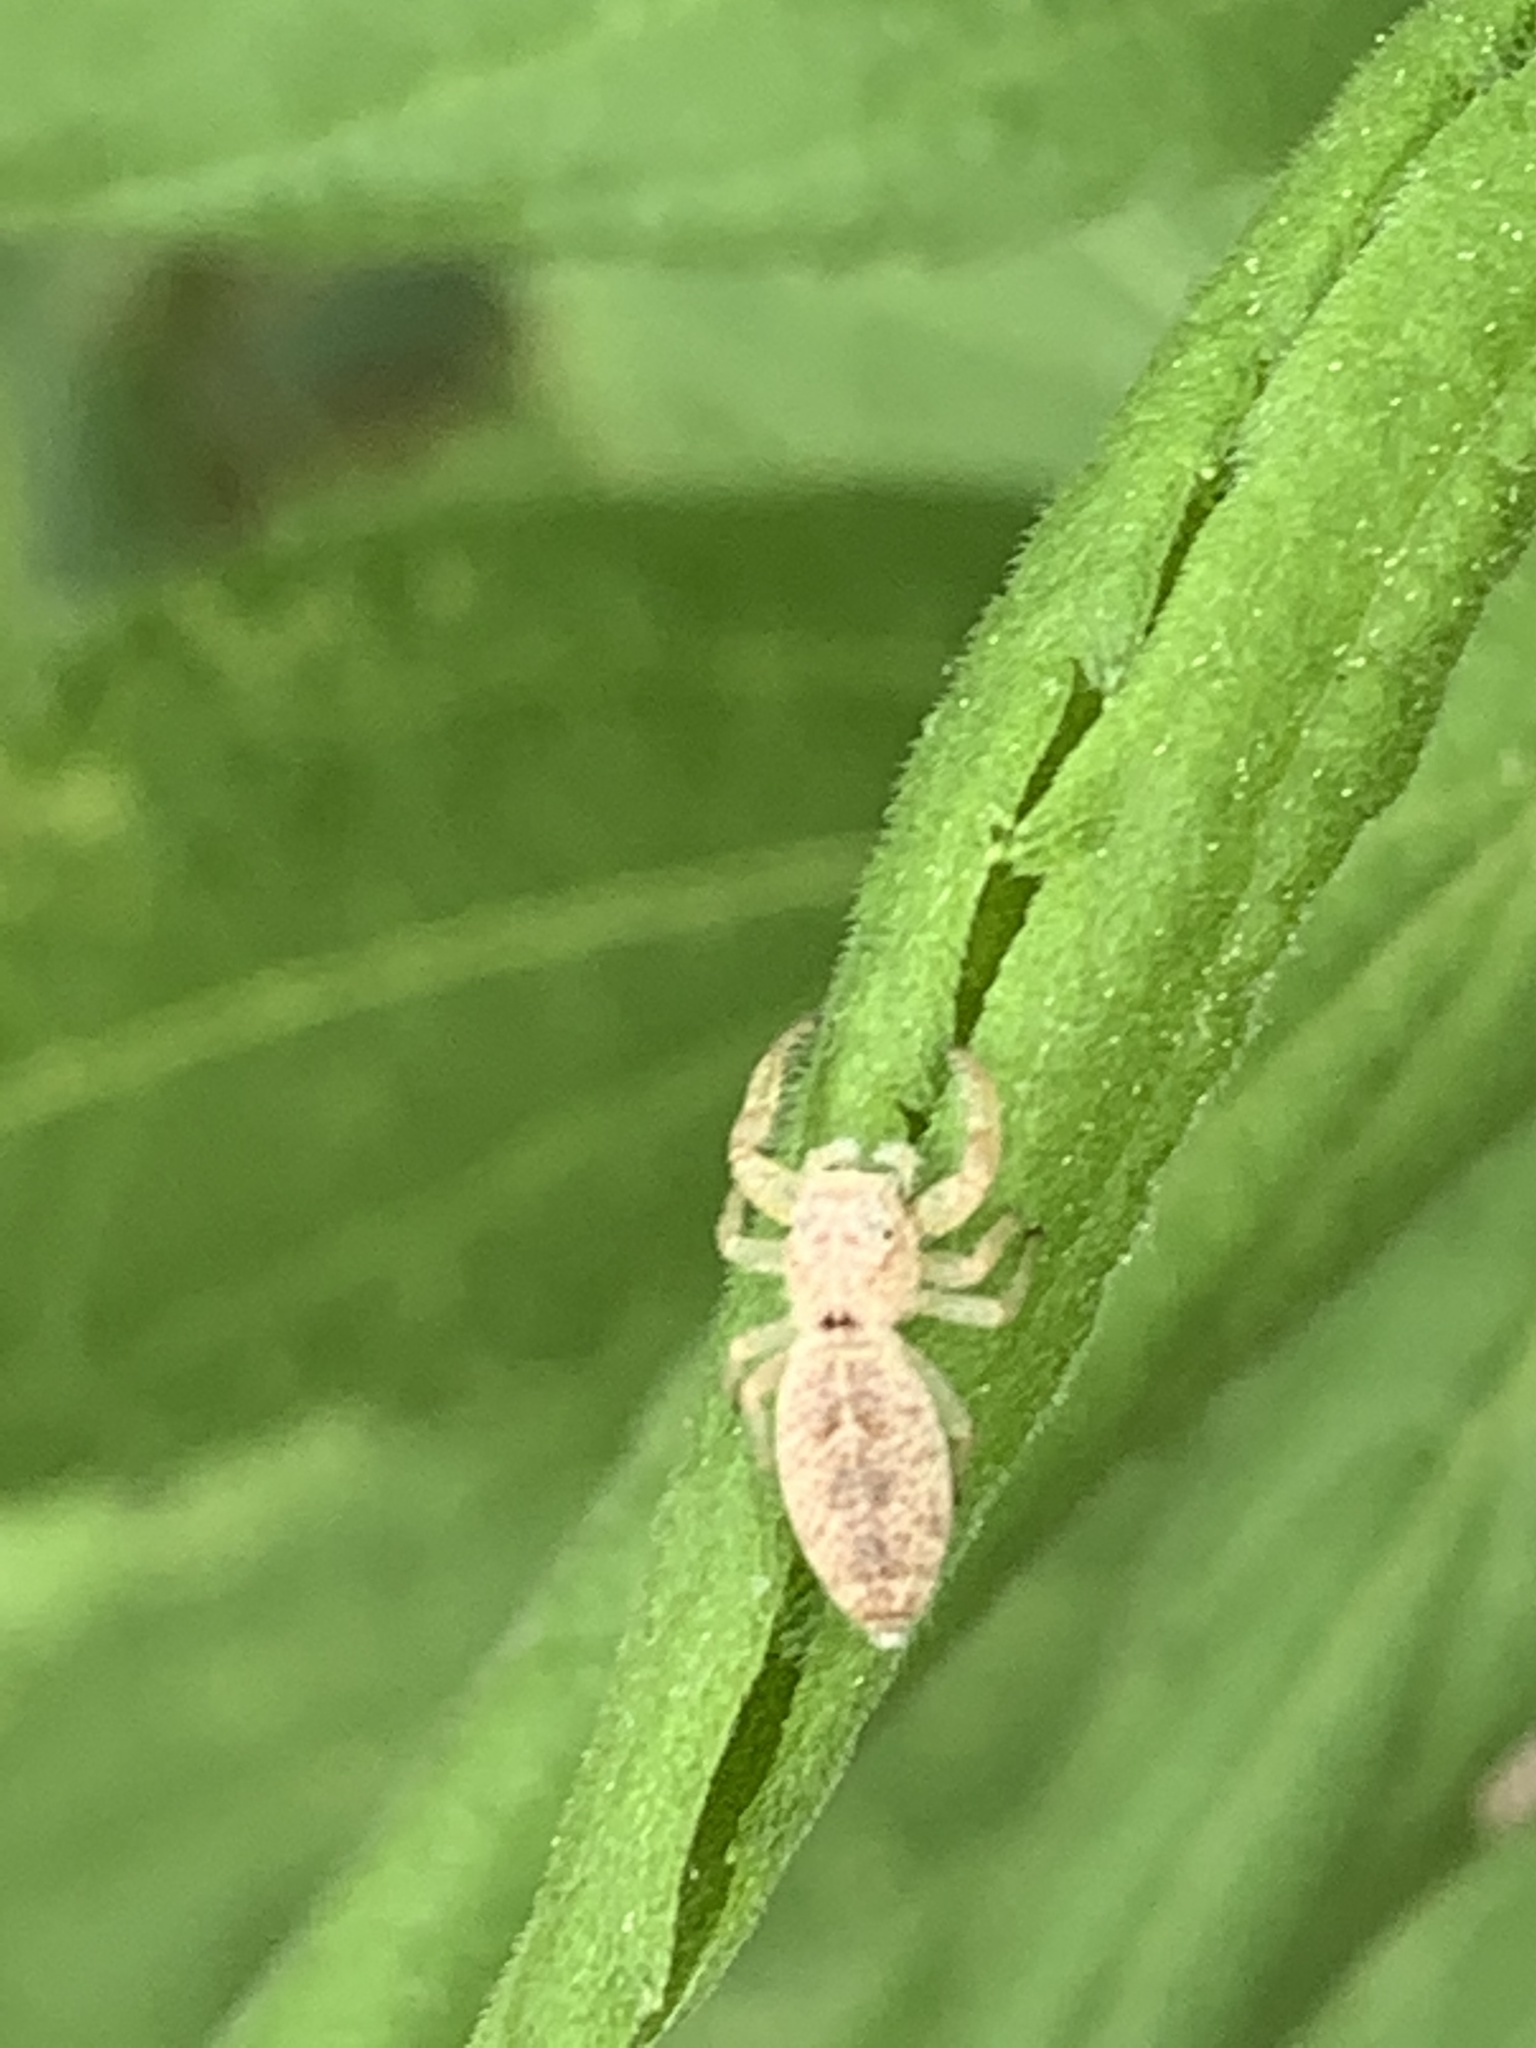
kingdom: Animalia
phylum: Arthropoda
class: Arachnida
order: Araneae
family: Salticidae
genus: Hentzia
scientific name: Hentzia mitrata
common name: White-jawed jumping spider
